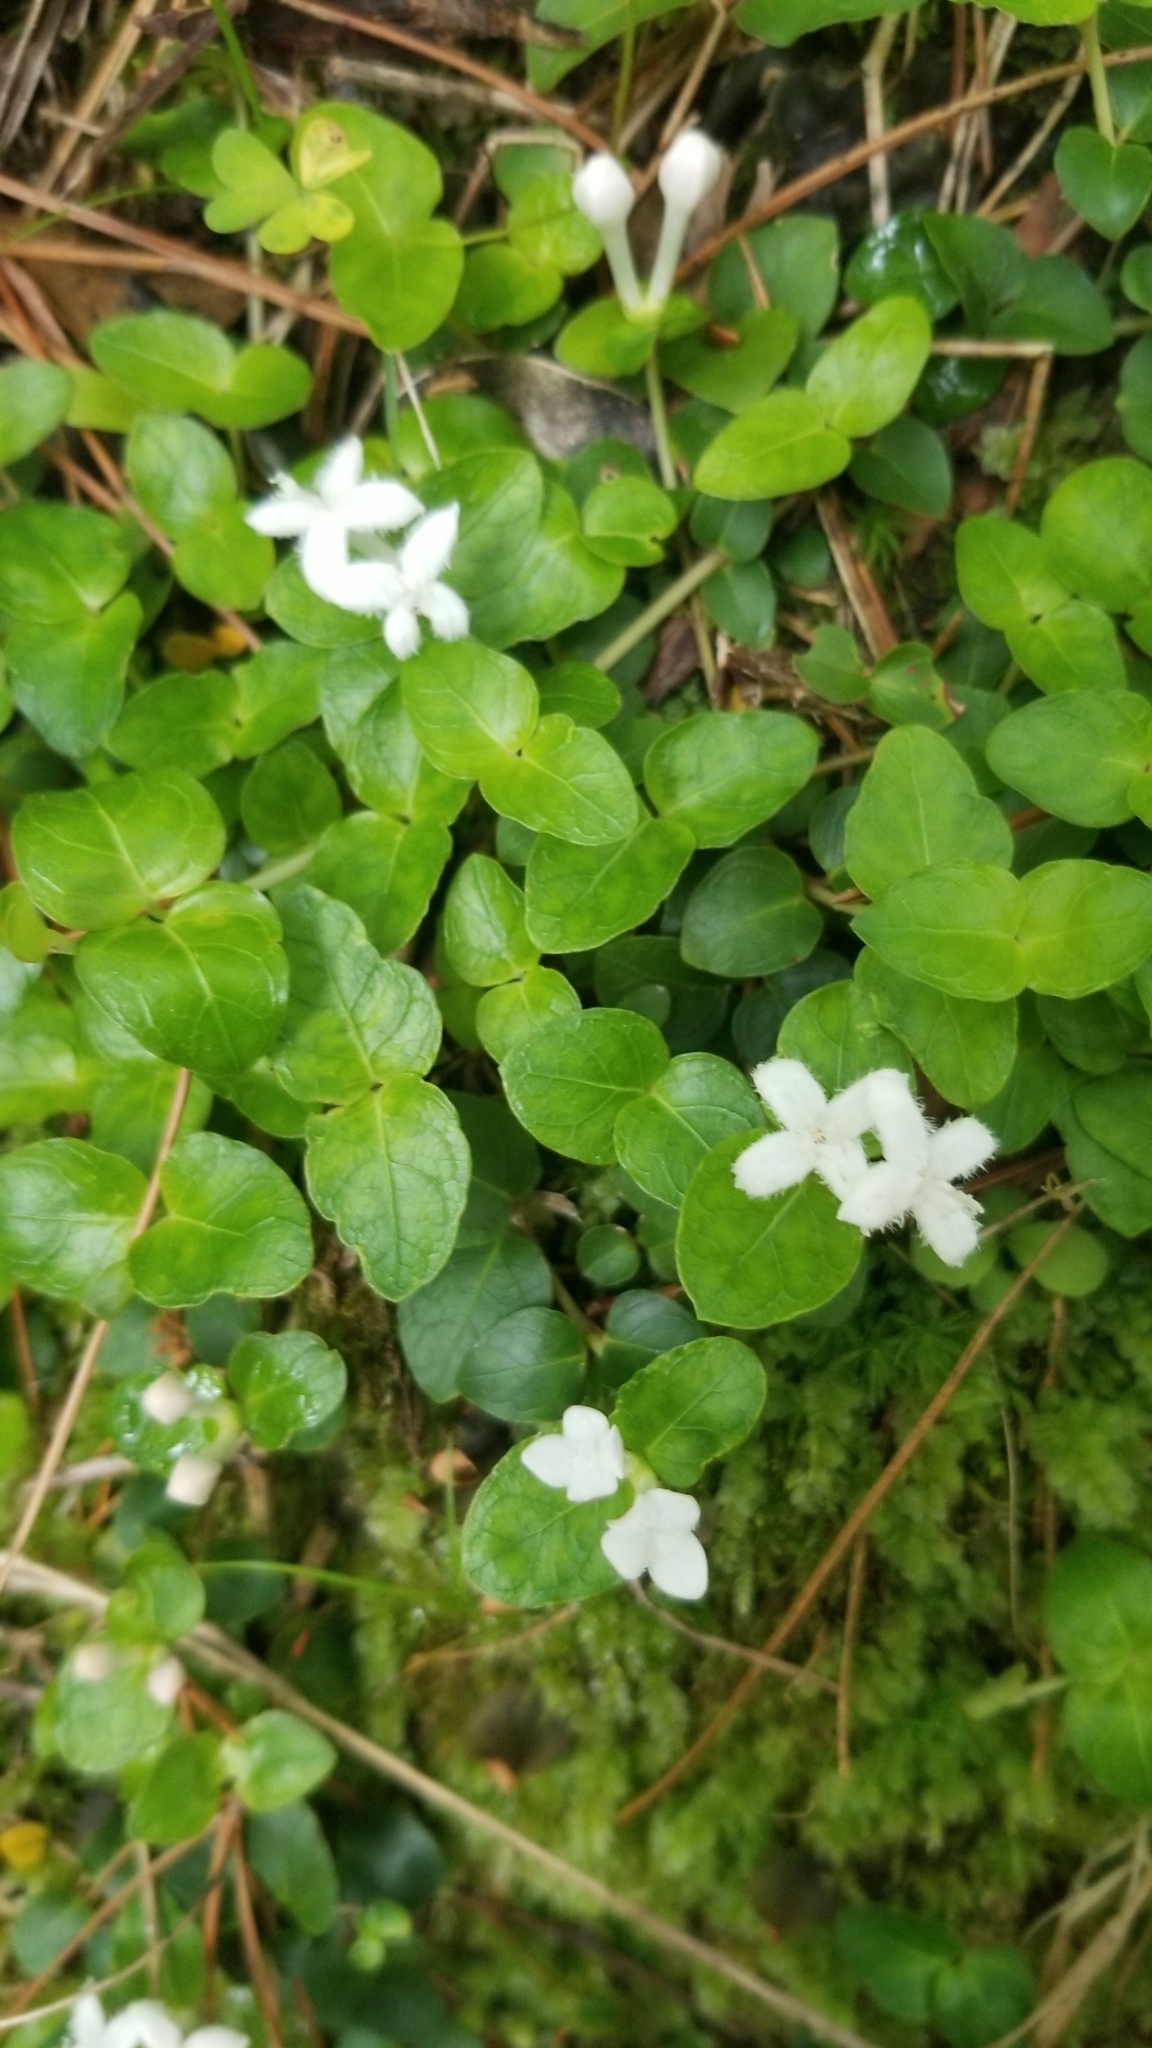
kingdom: Plantae
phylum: Tracheophyta
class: Magnoliopsida
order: Gentianales
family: Rubiaceae
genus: Mitchella
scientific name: Mitchella repens
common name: Partridge-berry
